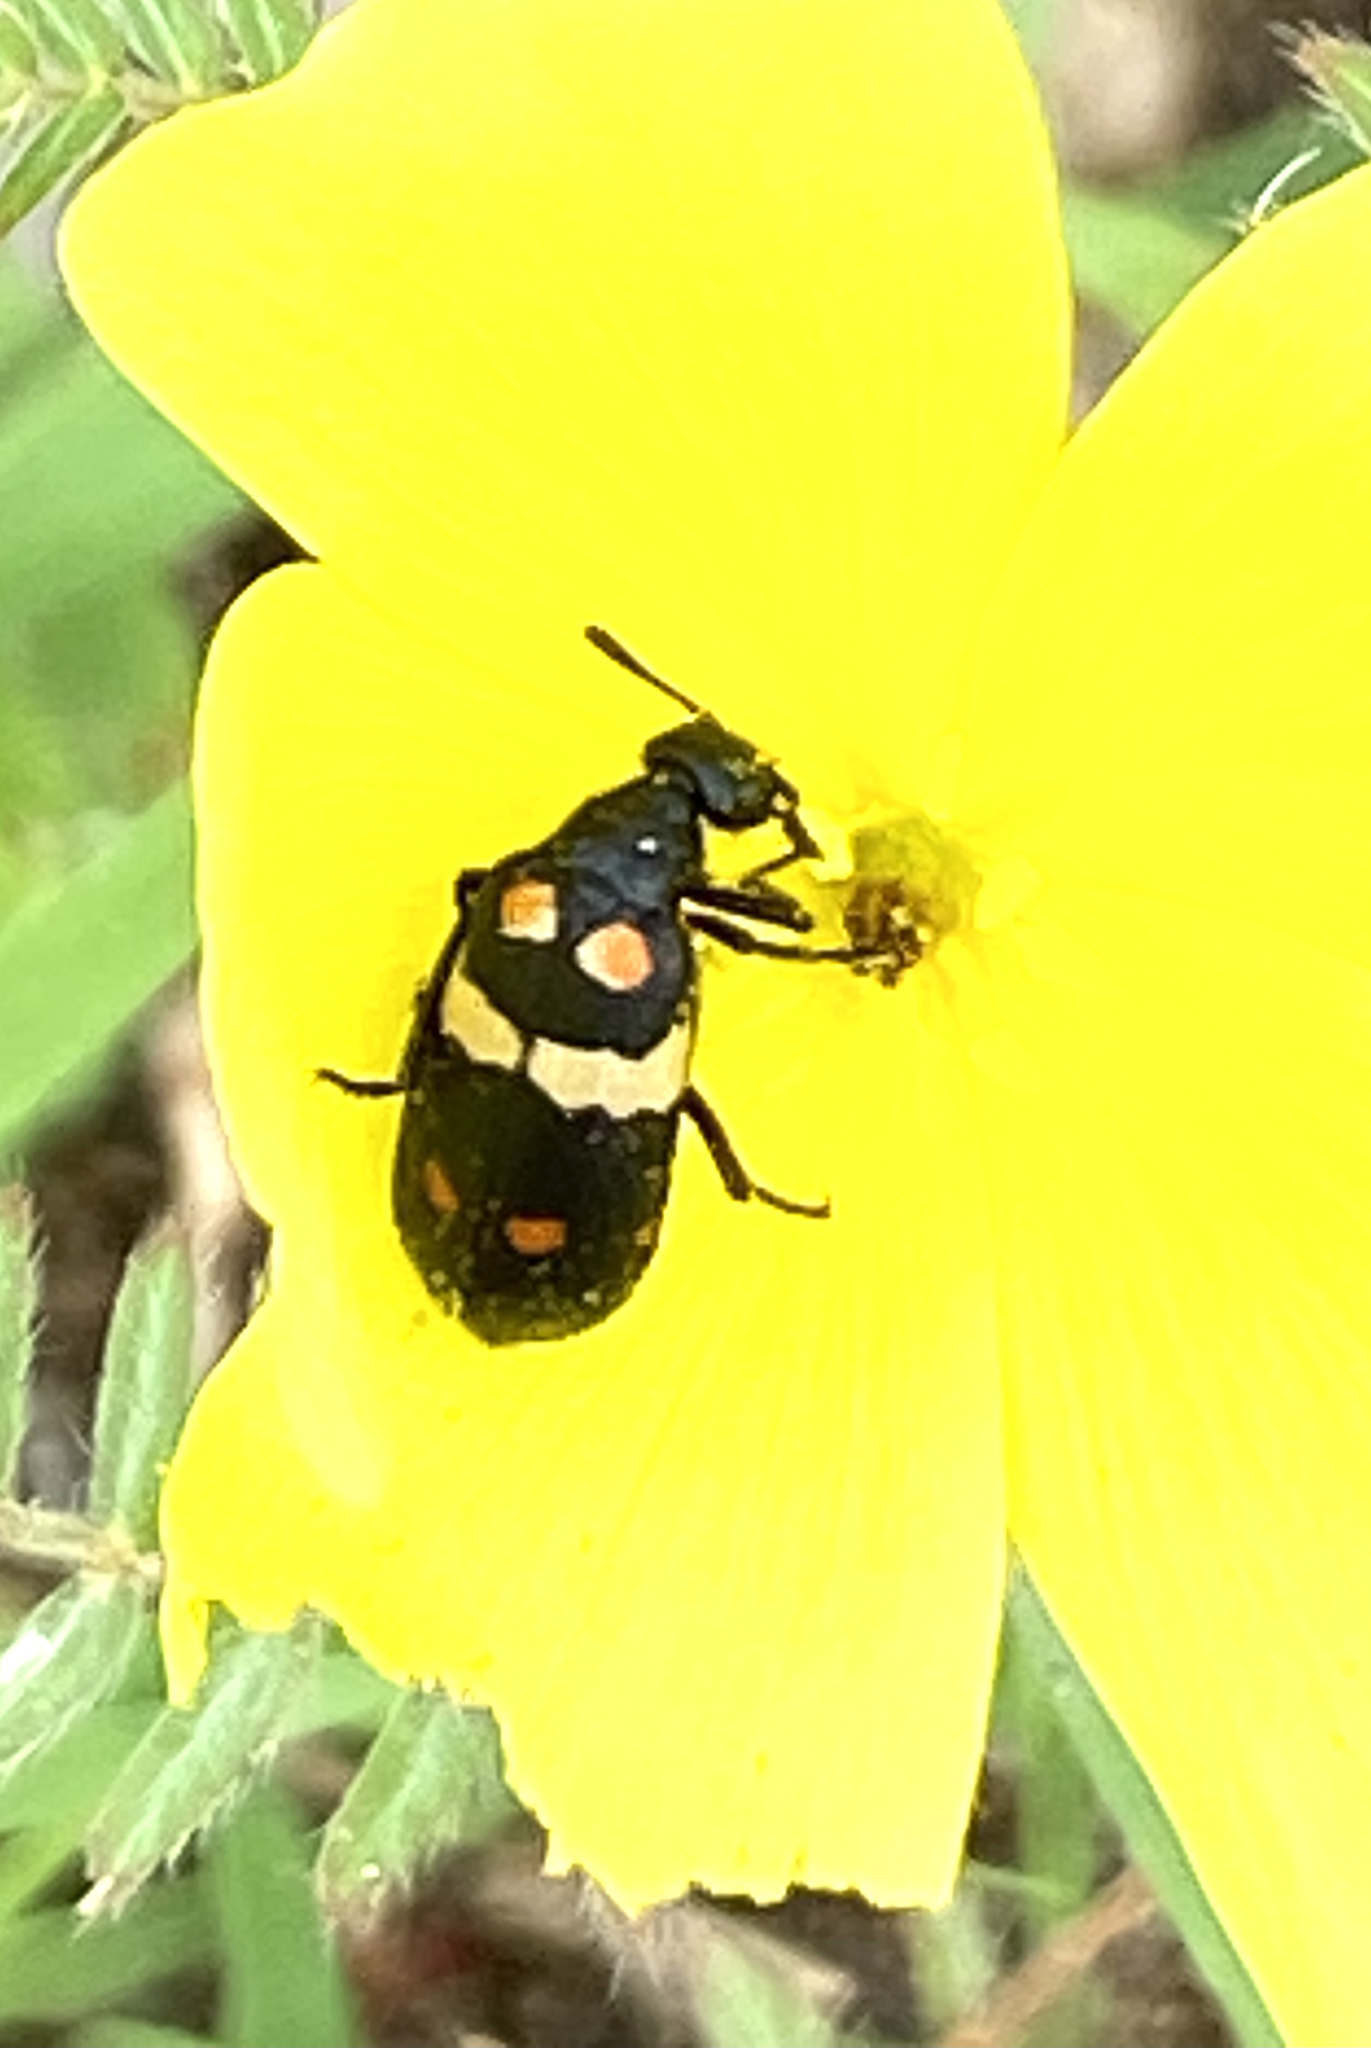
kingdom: Animalia
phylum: Arthropoda
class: Insecta
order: Coleoptera
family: Meloidae
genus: Hycleus
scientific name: Hycleus svakopinus
